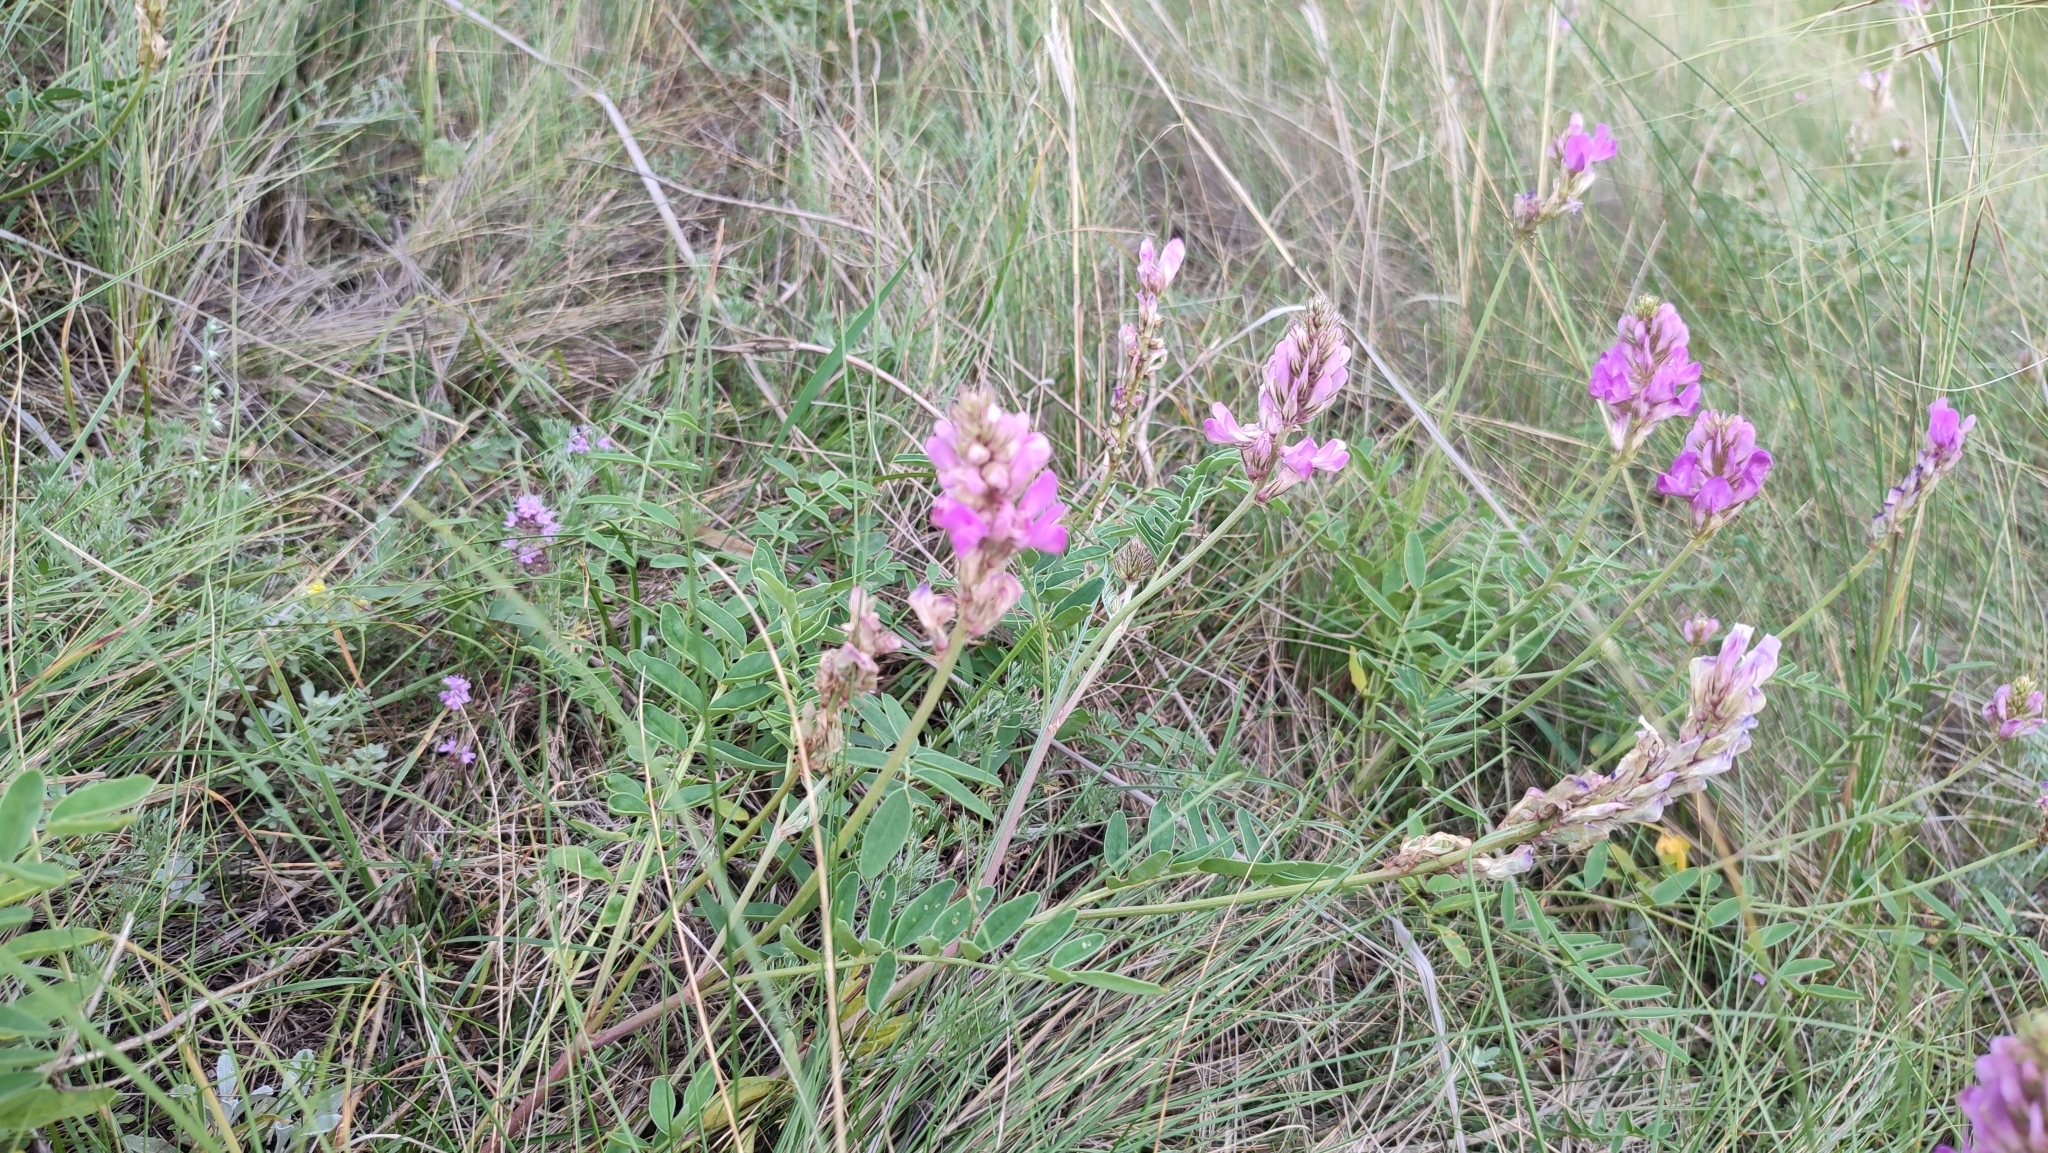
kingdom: Plantae
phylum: Tracheophyta
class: Magnoliopsida
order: Fabales
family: Fabaceae
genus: Hedysarum
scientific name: Hedysarum gmelinii
